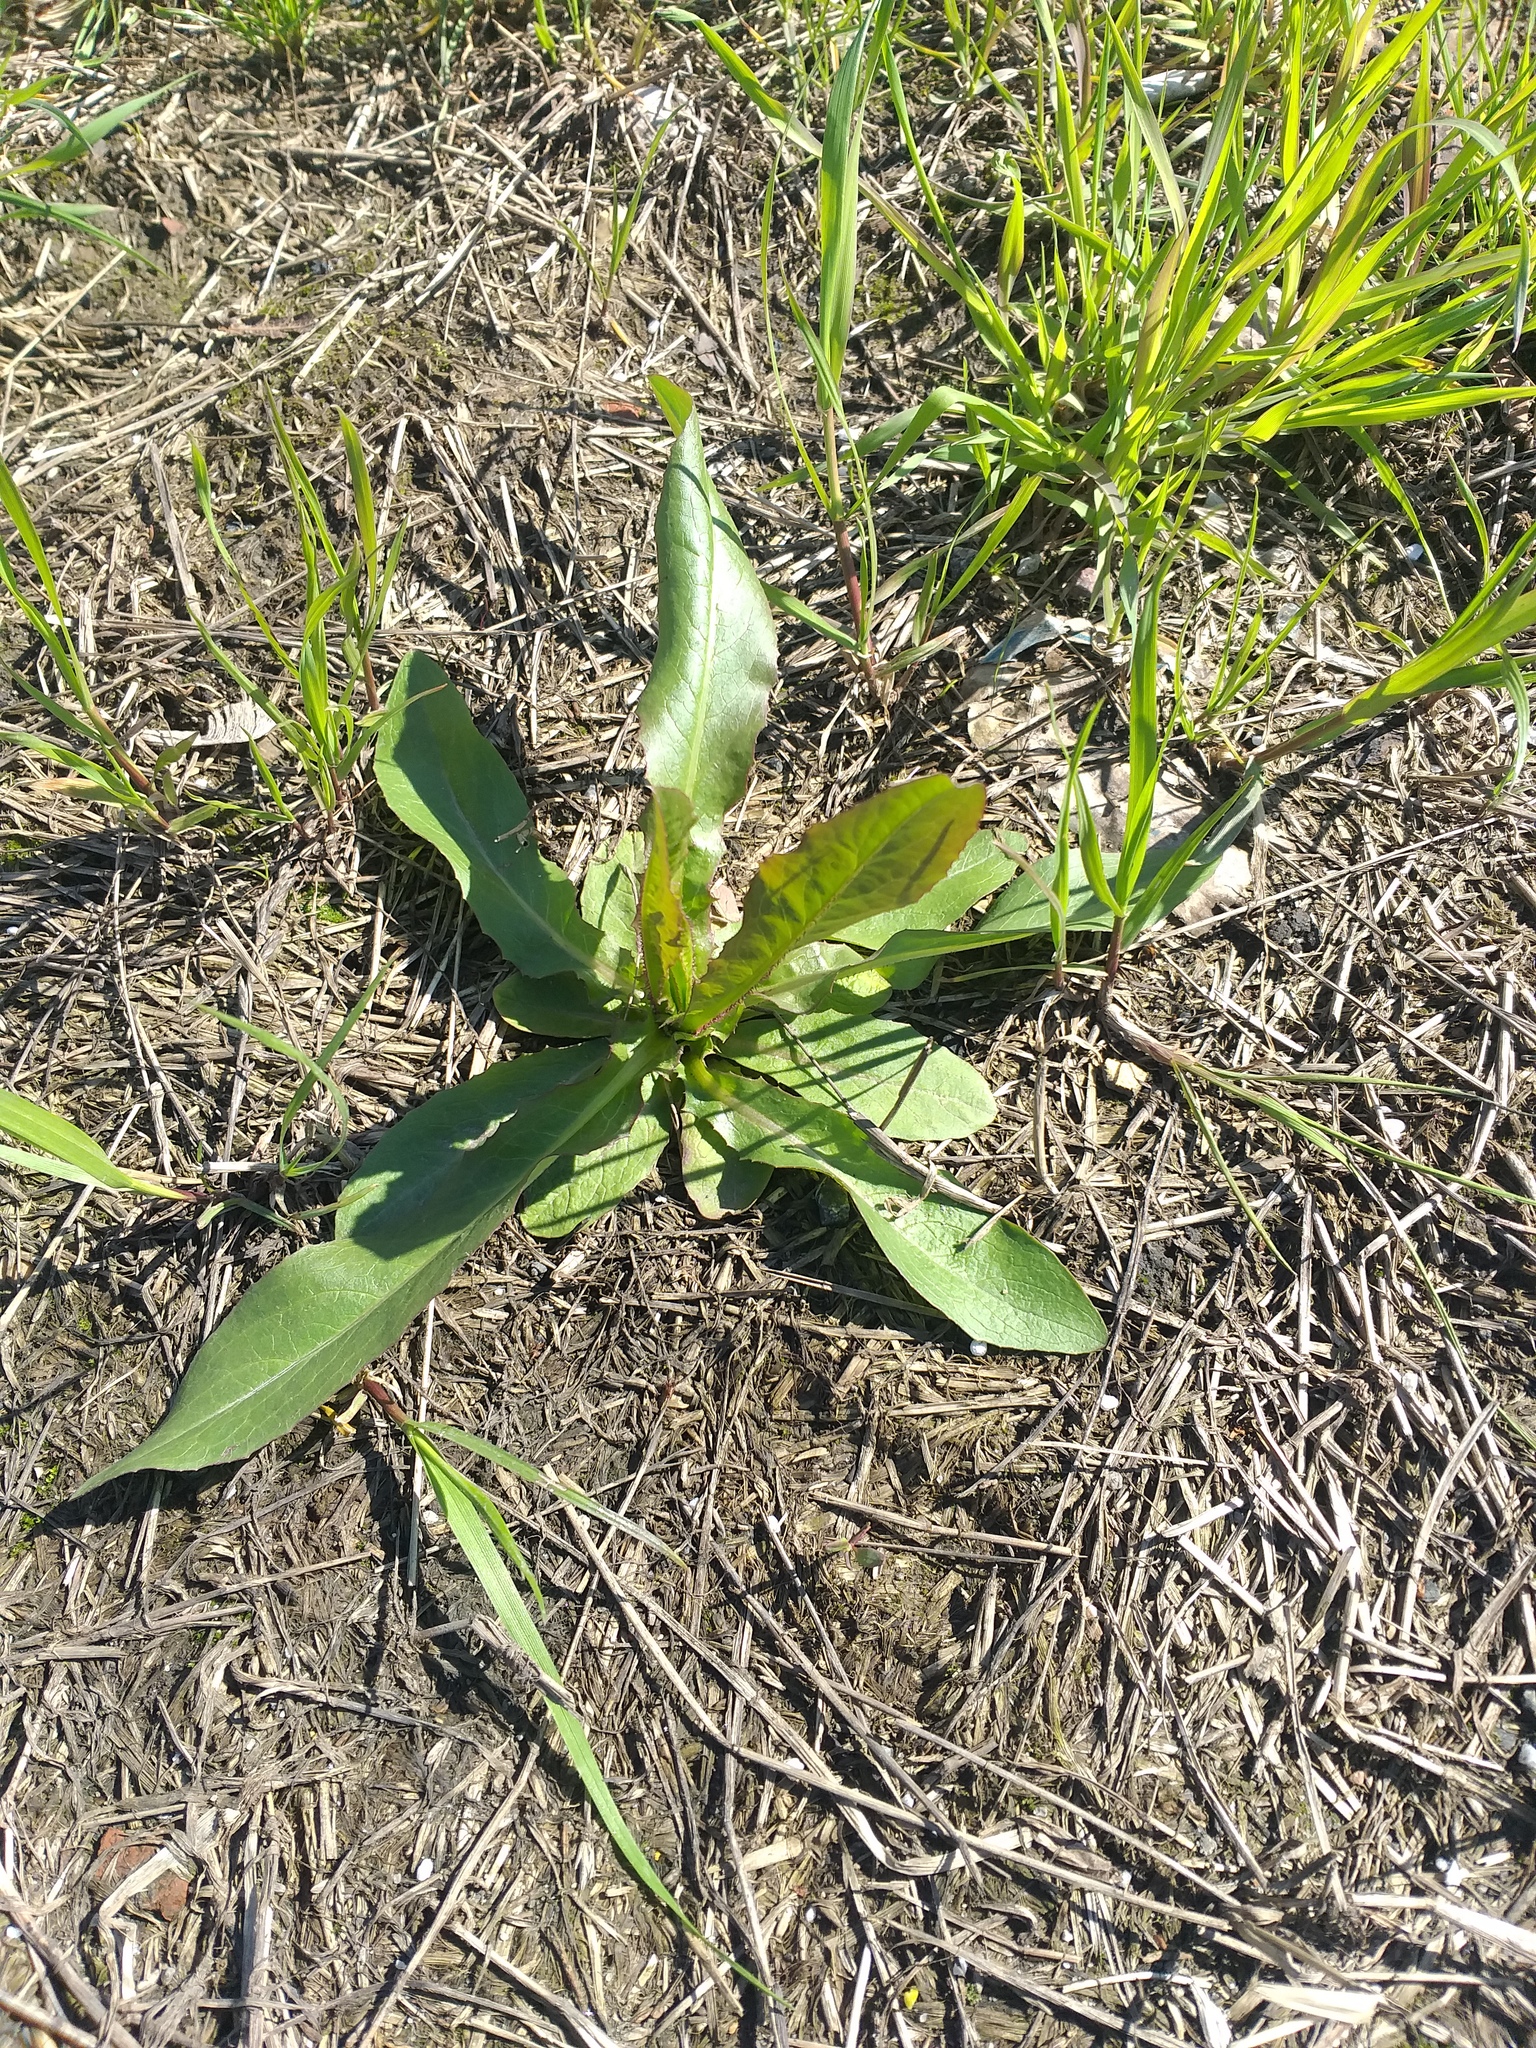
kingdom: Plantae
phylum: Tracheophyta
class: Magnoliopsida
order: Asterales
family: Asteraceae
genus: Lactuca
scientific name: Lactuca serriola
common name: Prickly lettuce
